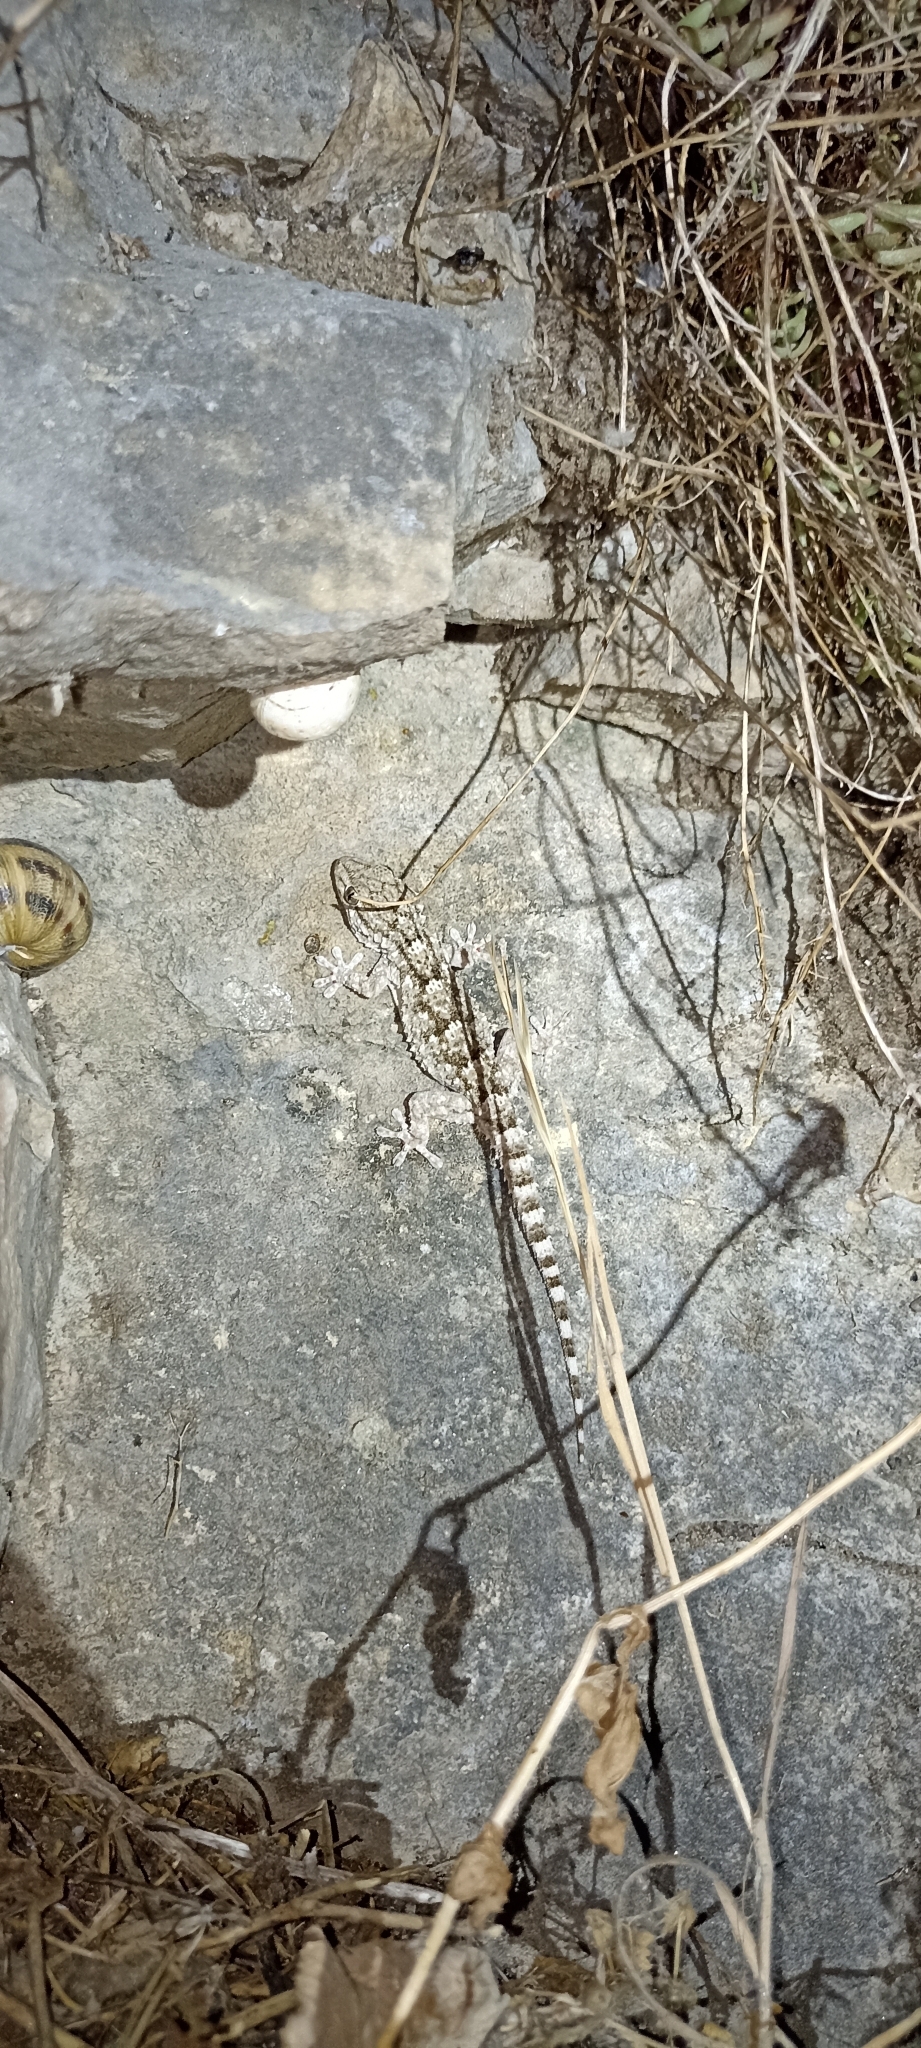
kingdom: Animalia
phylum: Chordata
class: Squamata
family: Phyllodactylidae
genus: Tarentola
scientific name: Tarentola mauritanica
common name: Moorish gecko
